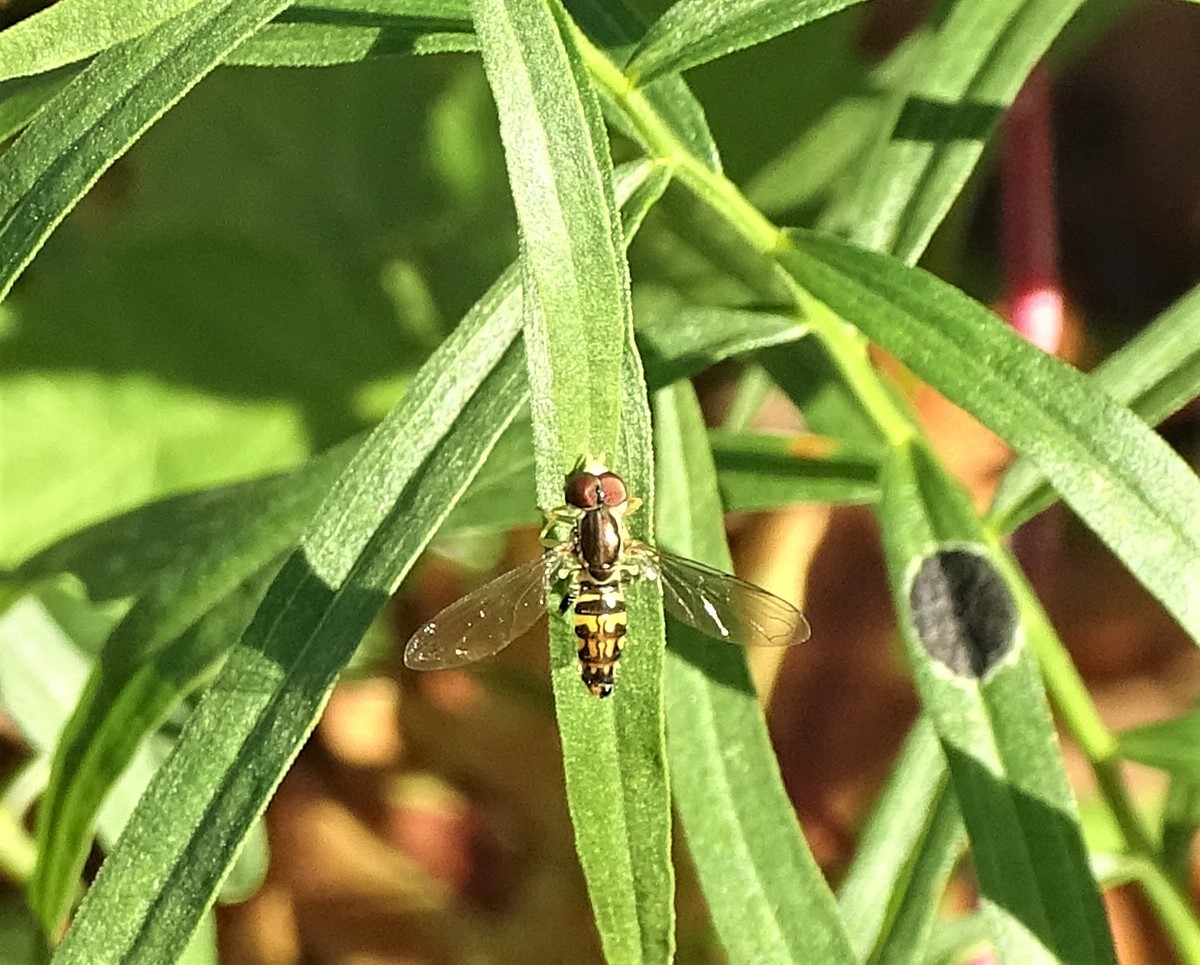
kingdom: Animalia
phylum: Arthropoda
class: Insecta
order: Diptera
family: Syrphidae
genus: Toxomerus
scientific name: Toxomerus geminatus
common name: Eastern calligrapher
